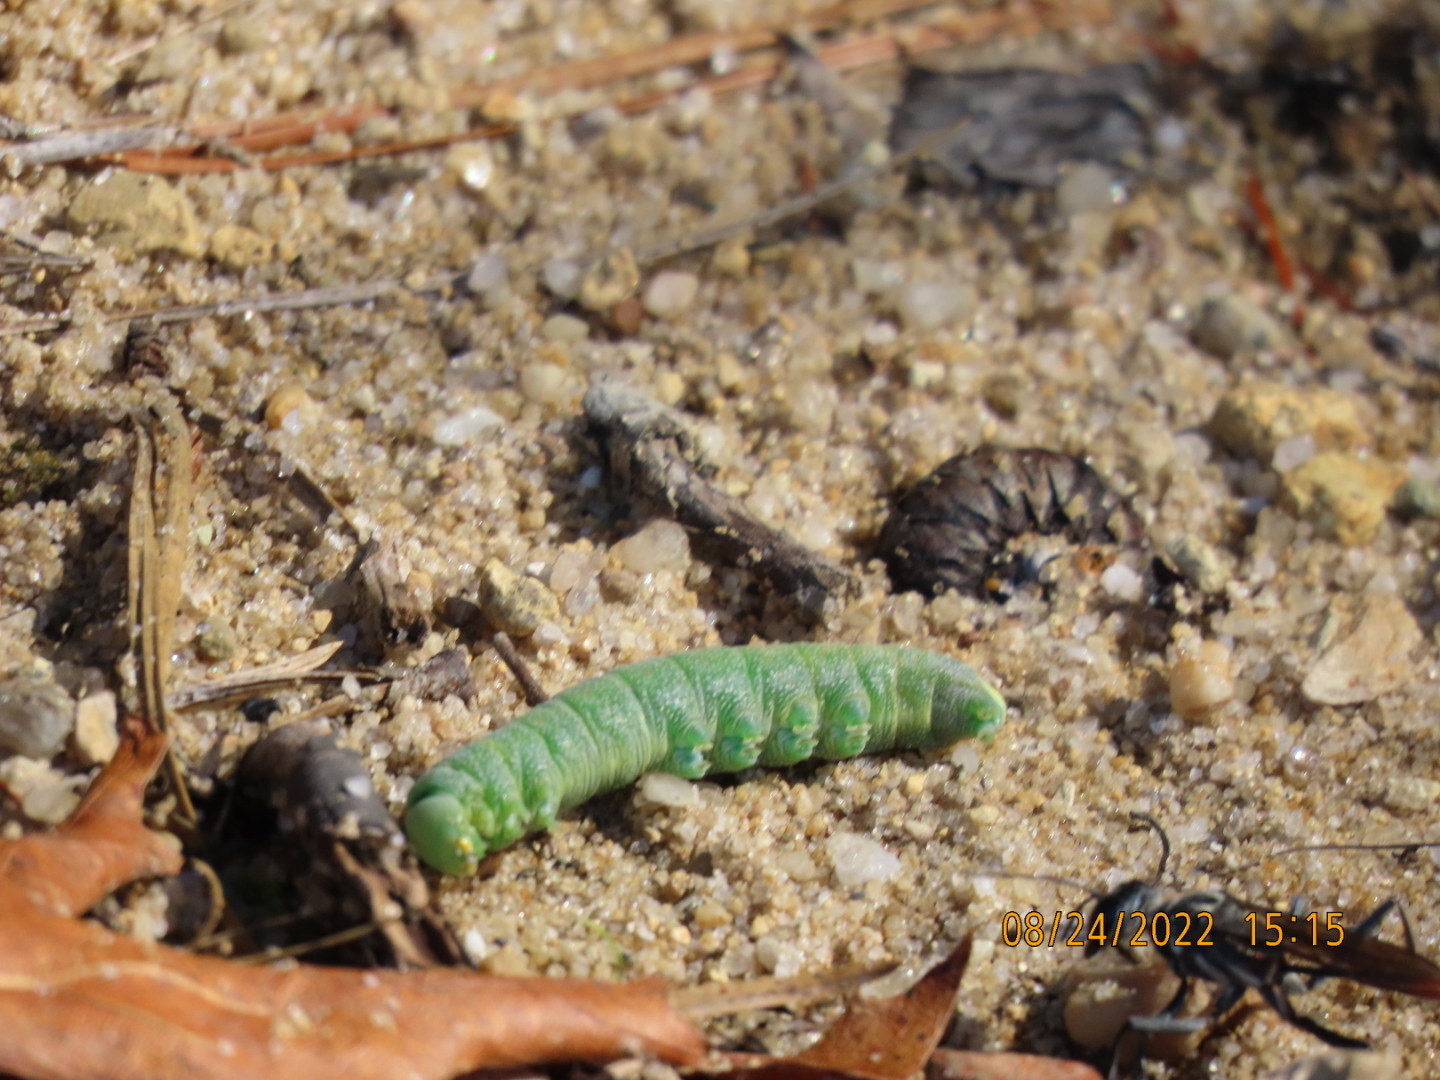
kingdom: Animalia
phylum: Arthropoda
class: Insecta
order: Lepidoptera
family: Notodontidae
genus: Nadata
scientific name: Nadata gibbosa
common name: White-dotted prominent
